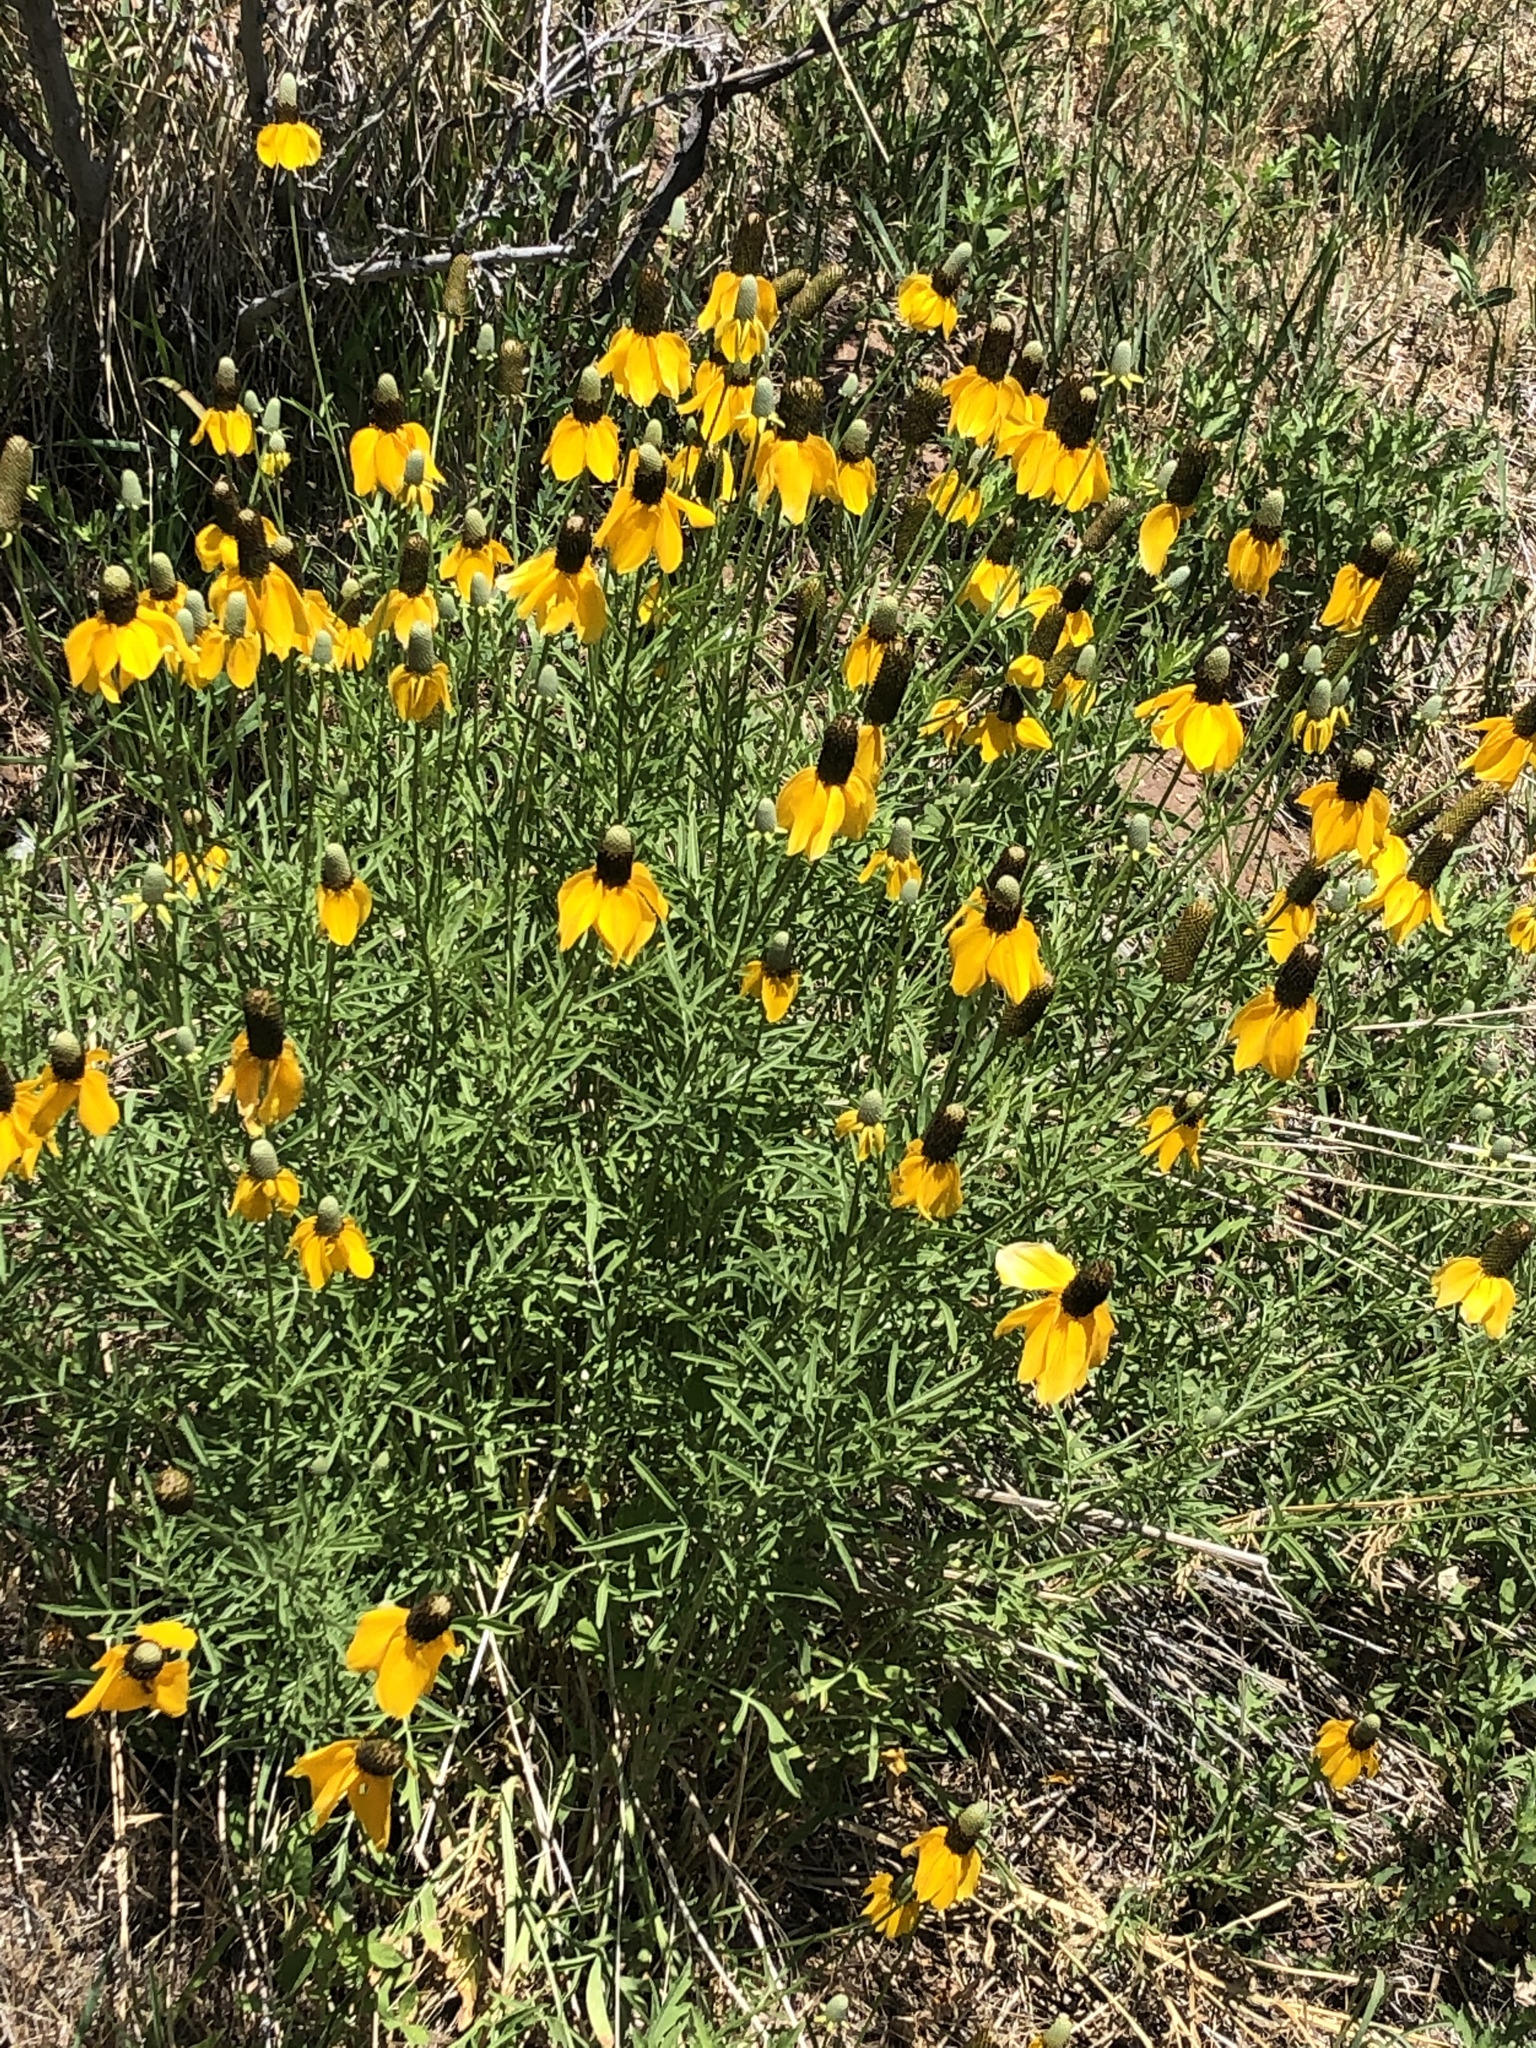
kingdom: Plantae
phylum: Tracheophyta
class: Magnoliopsida
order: Asterales
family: Asteraceae
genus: Ratibida
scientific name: Ratibida columnifera
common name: Prairie coneflower
